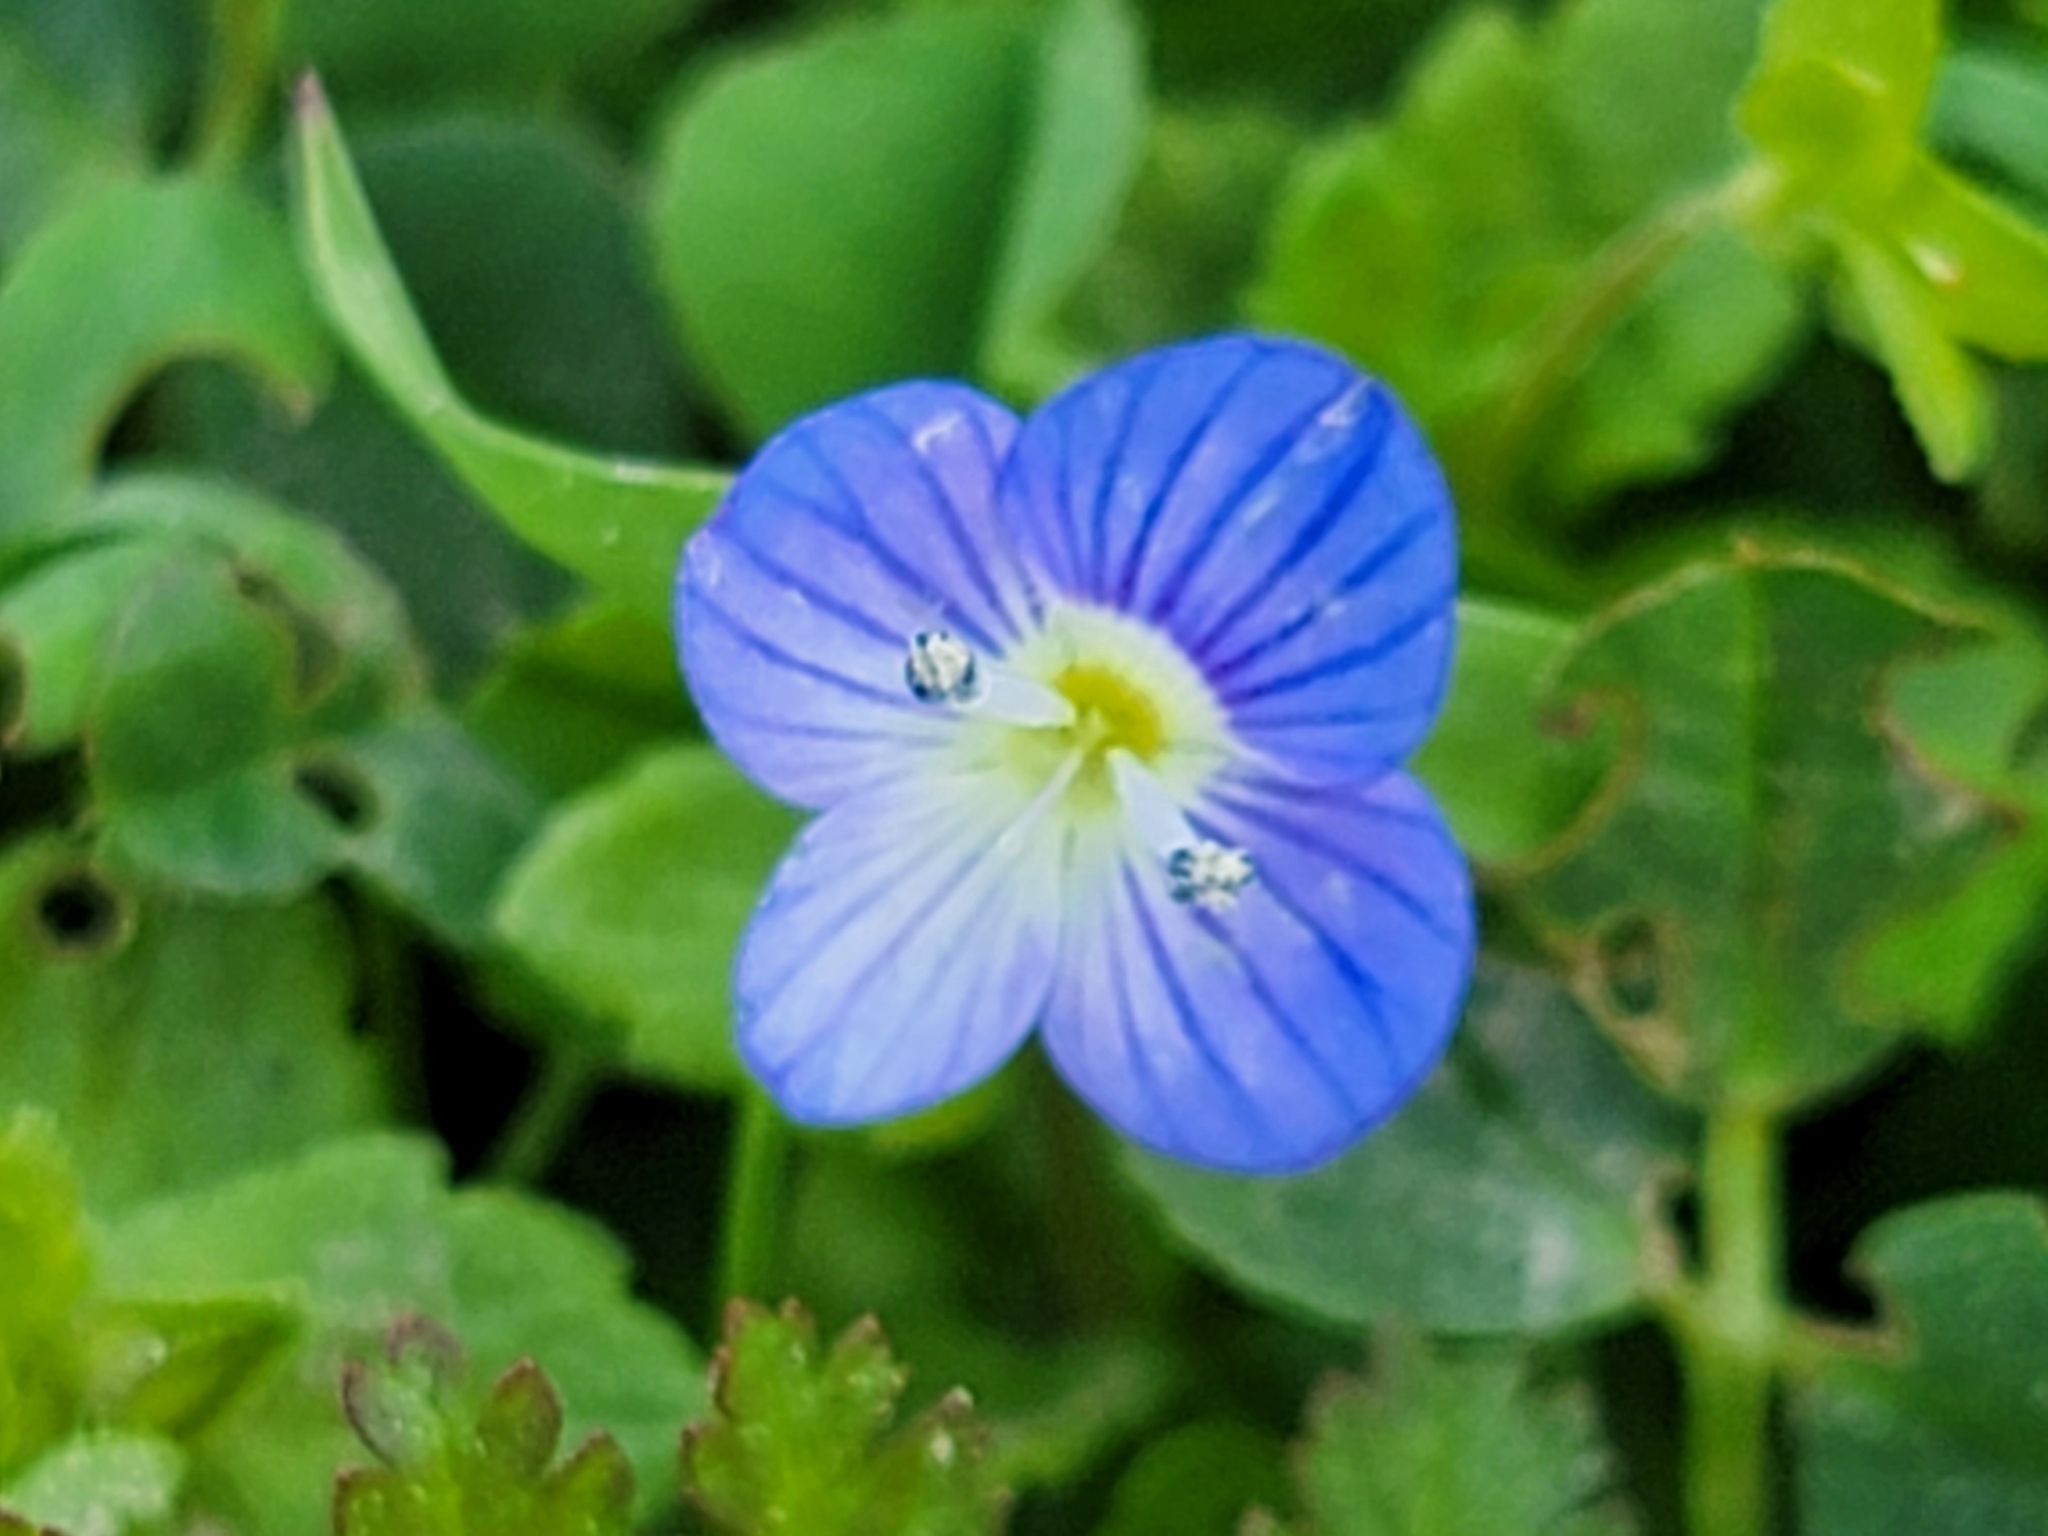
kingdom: Plantae
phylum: Tracheophyta
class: Magnoliopsida
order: Lamiales
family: Plantaginaceae
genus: Veronica
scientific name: Veronica persica
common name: Common field-speedwell
